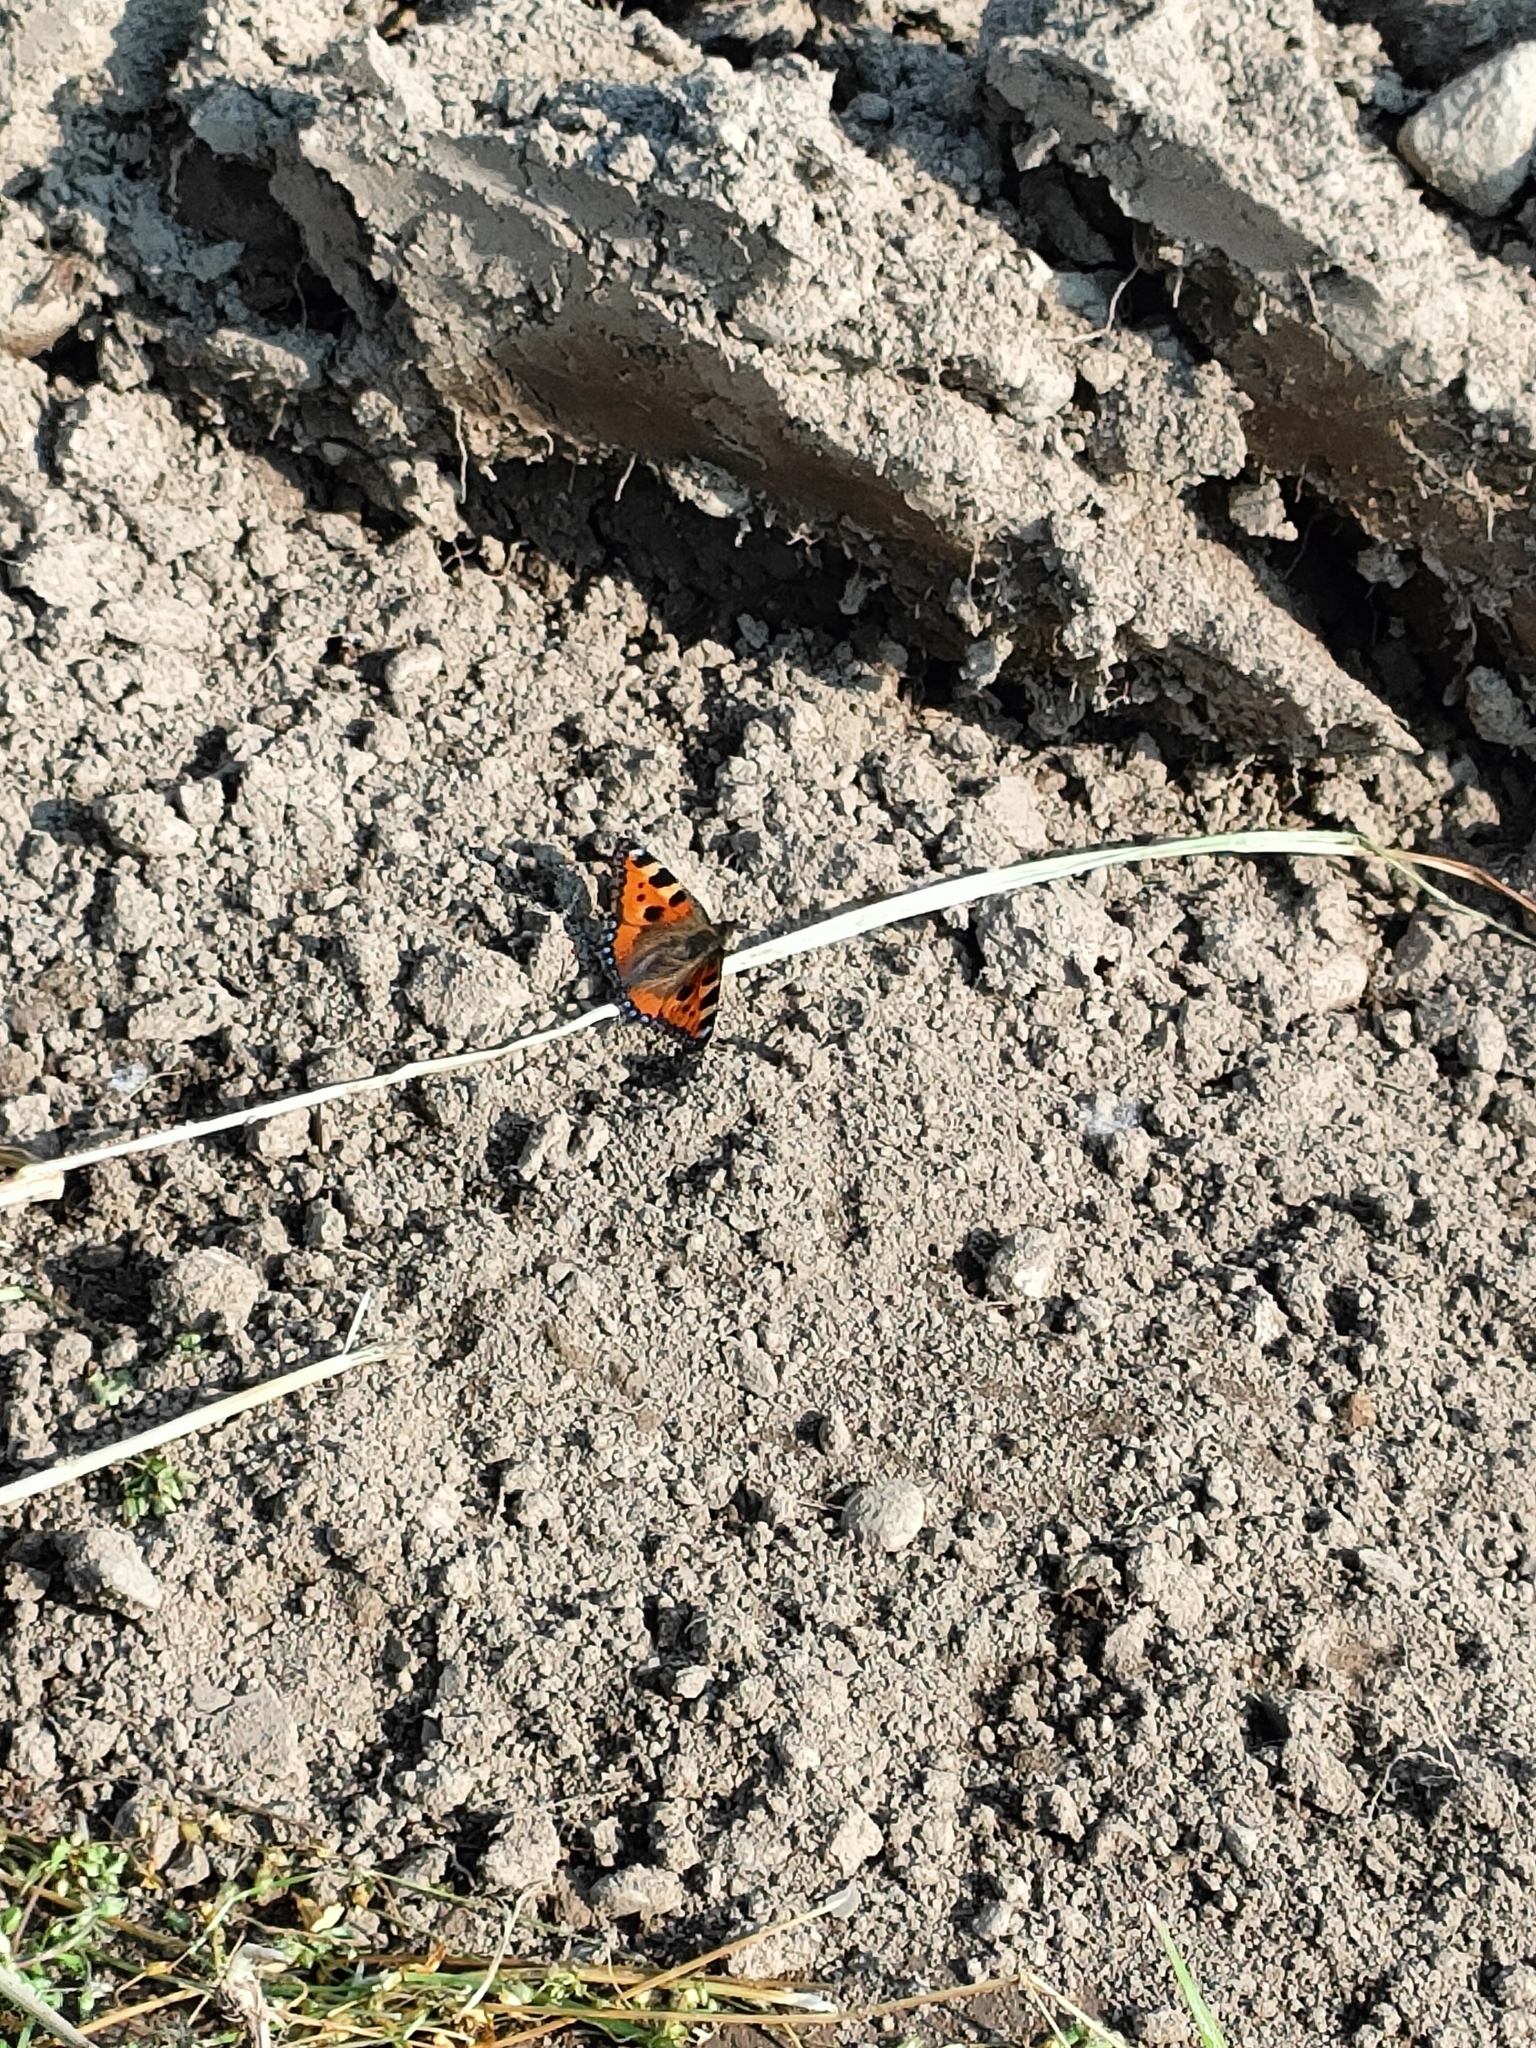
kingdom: Animalia
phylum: Arthropoda
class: Insecta
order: Lepidoptera
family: Nymphalidae
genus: Aglais
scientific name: Aglais urticae
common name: Small tortoiseshell
